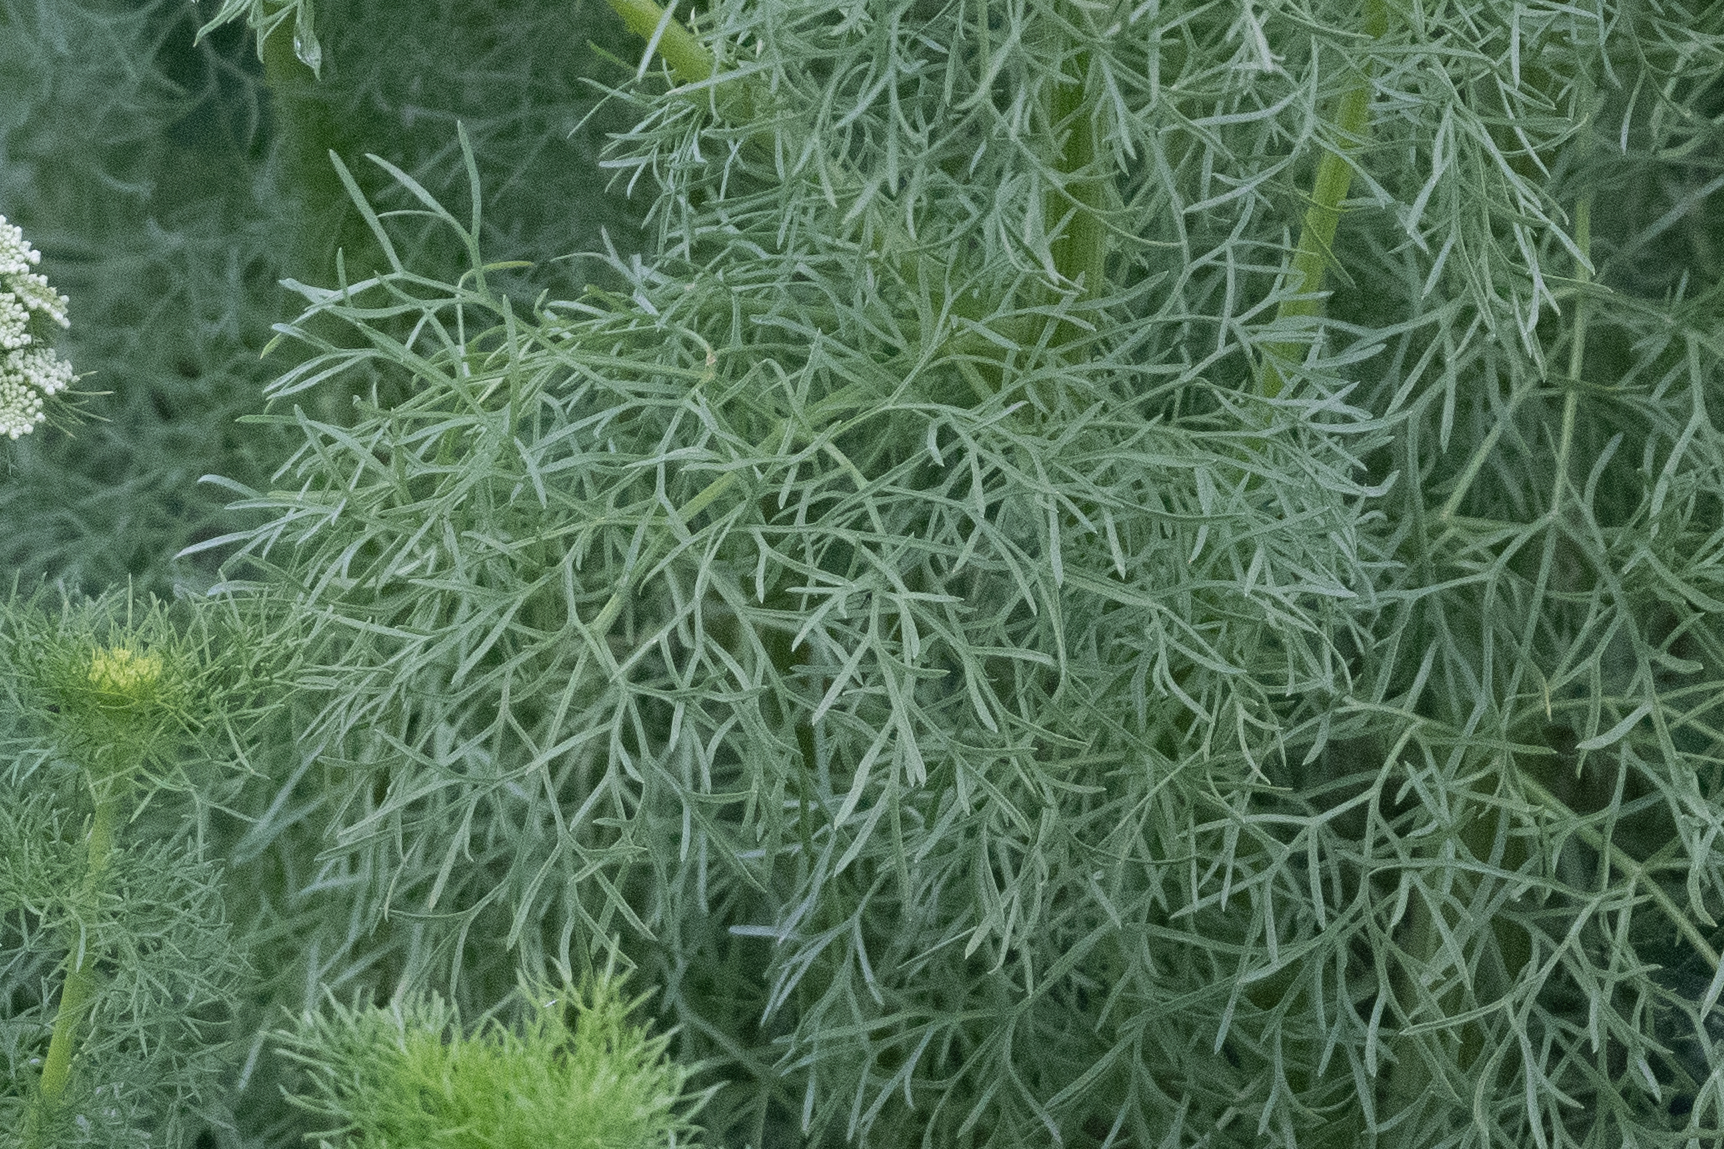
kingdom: Plantae
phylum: Tracheophyta
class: Magnoliopsida
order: Apiales
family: Apiaceae
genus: Visnaga
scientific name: Visnaga daucoides
